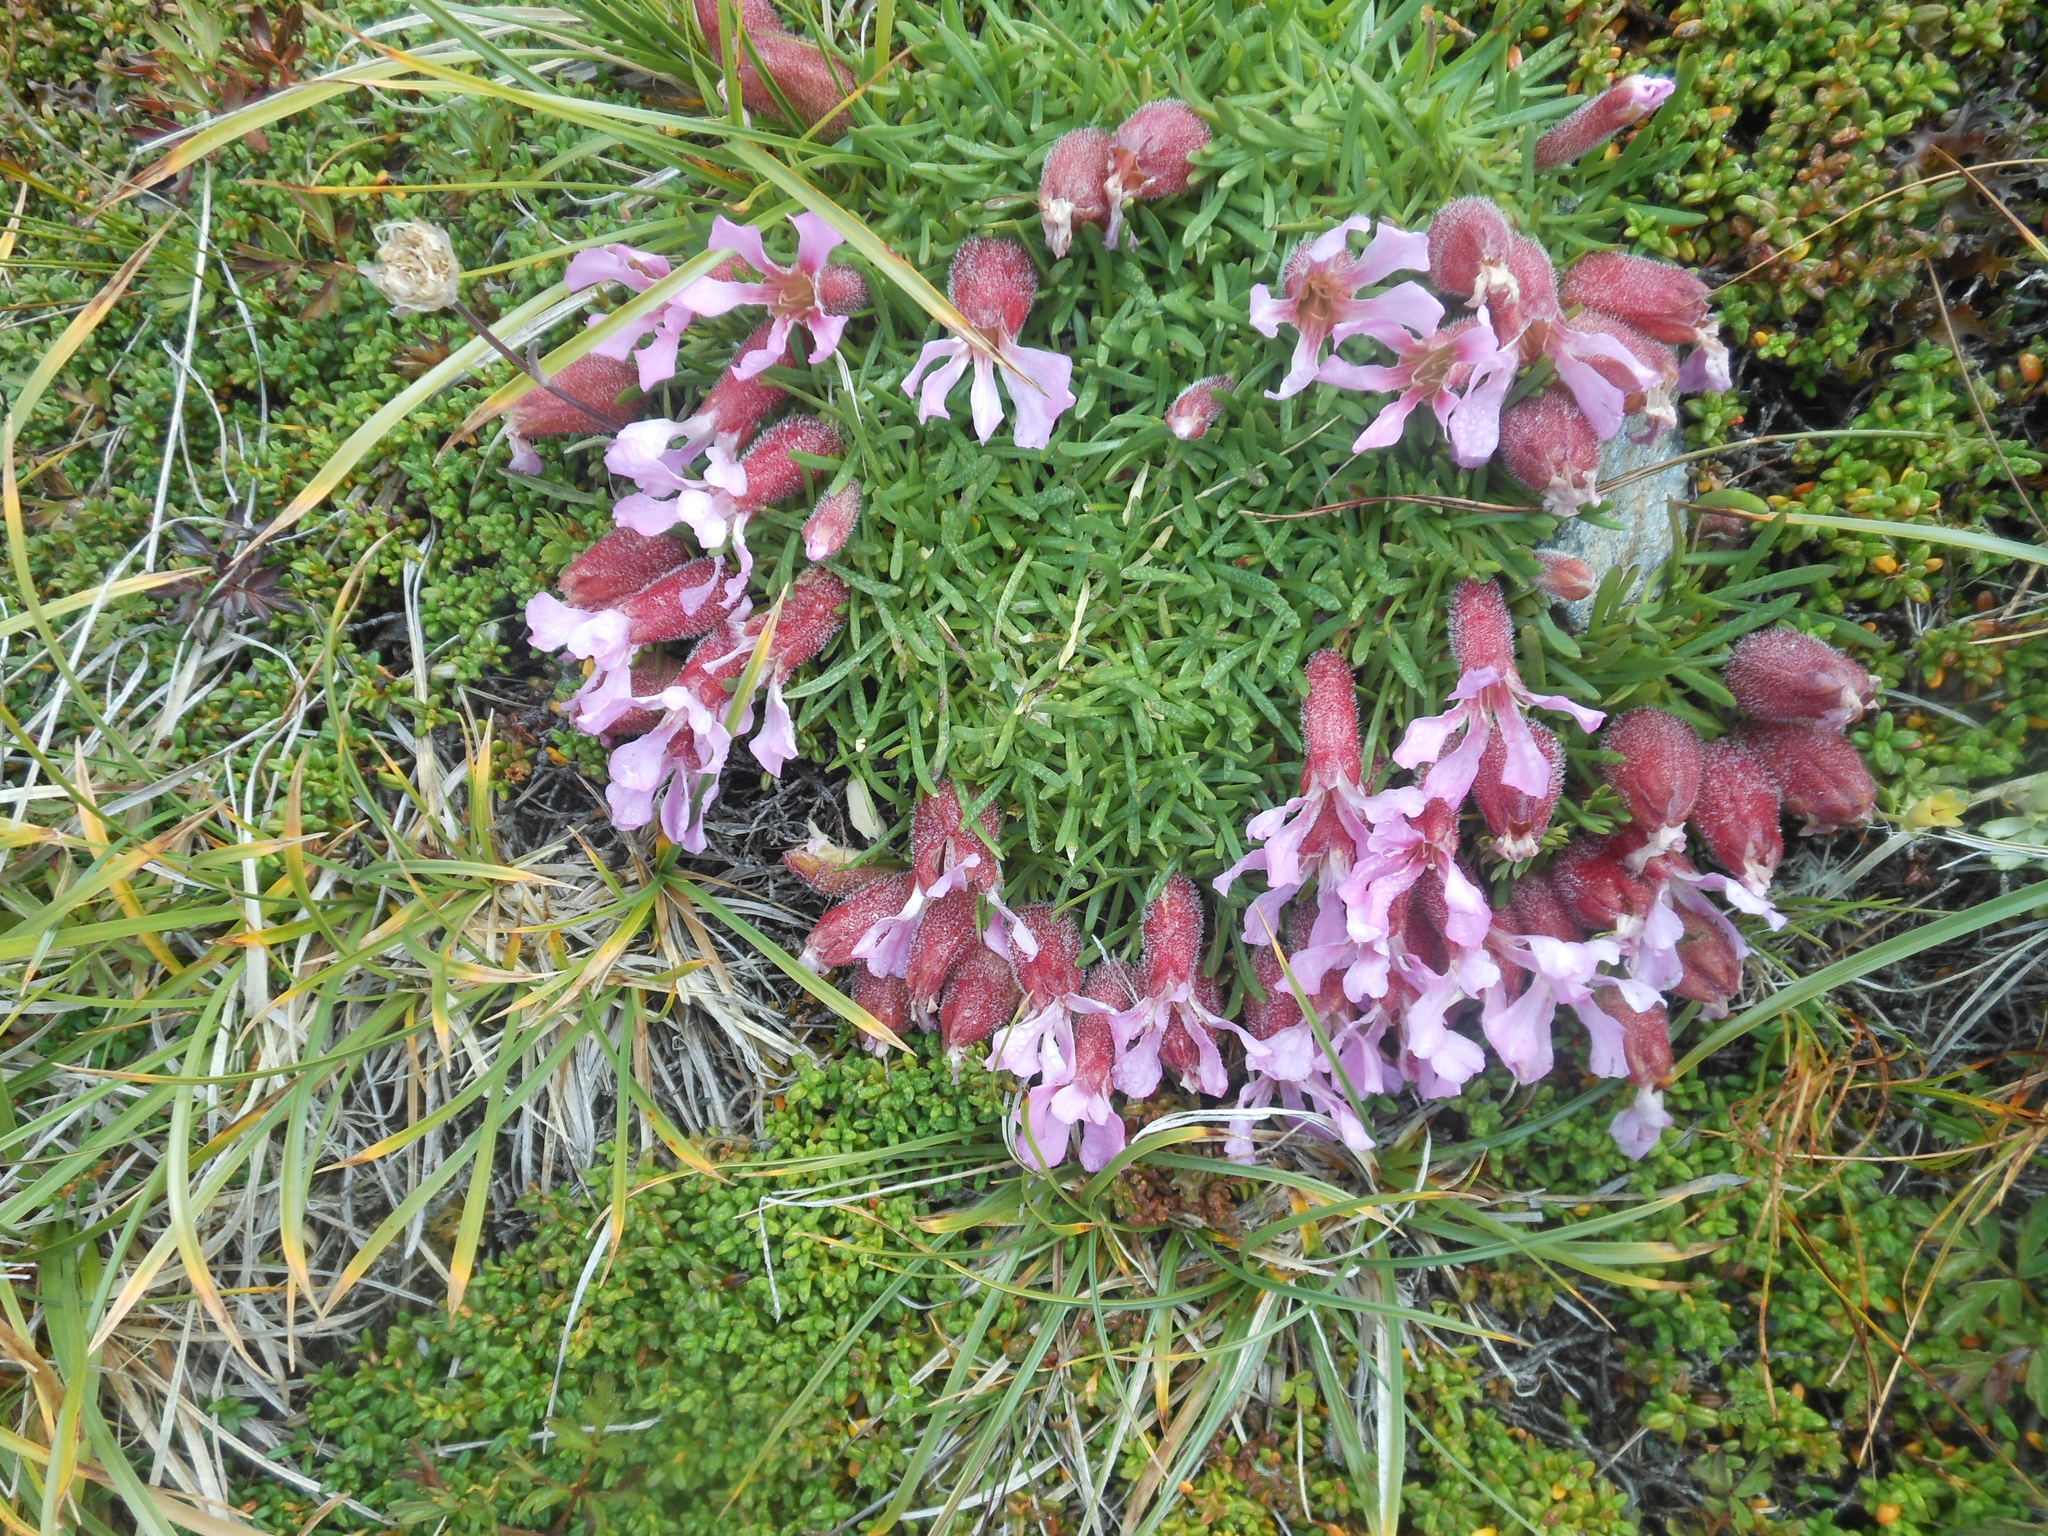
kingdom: Plantae
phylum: Tracheophyta
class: Magnoliopsida
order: Caryophyllales
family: Caryophyllaceae
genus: Saponaria
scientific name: Saponaria pumila
